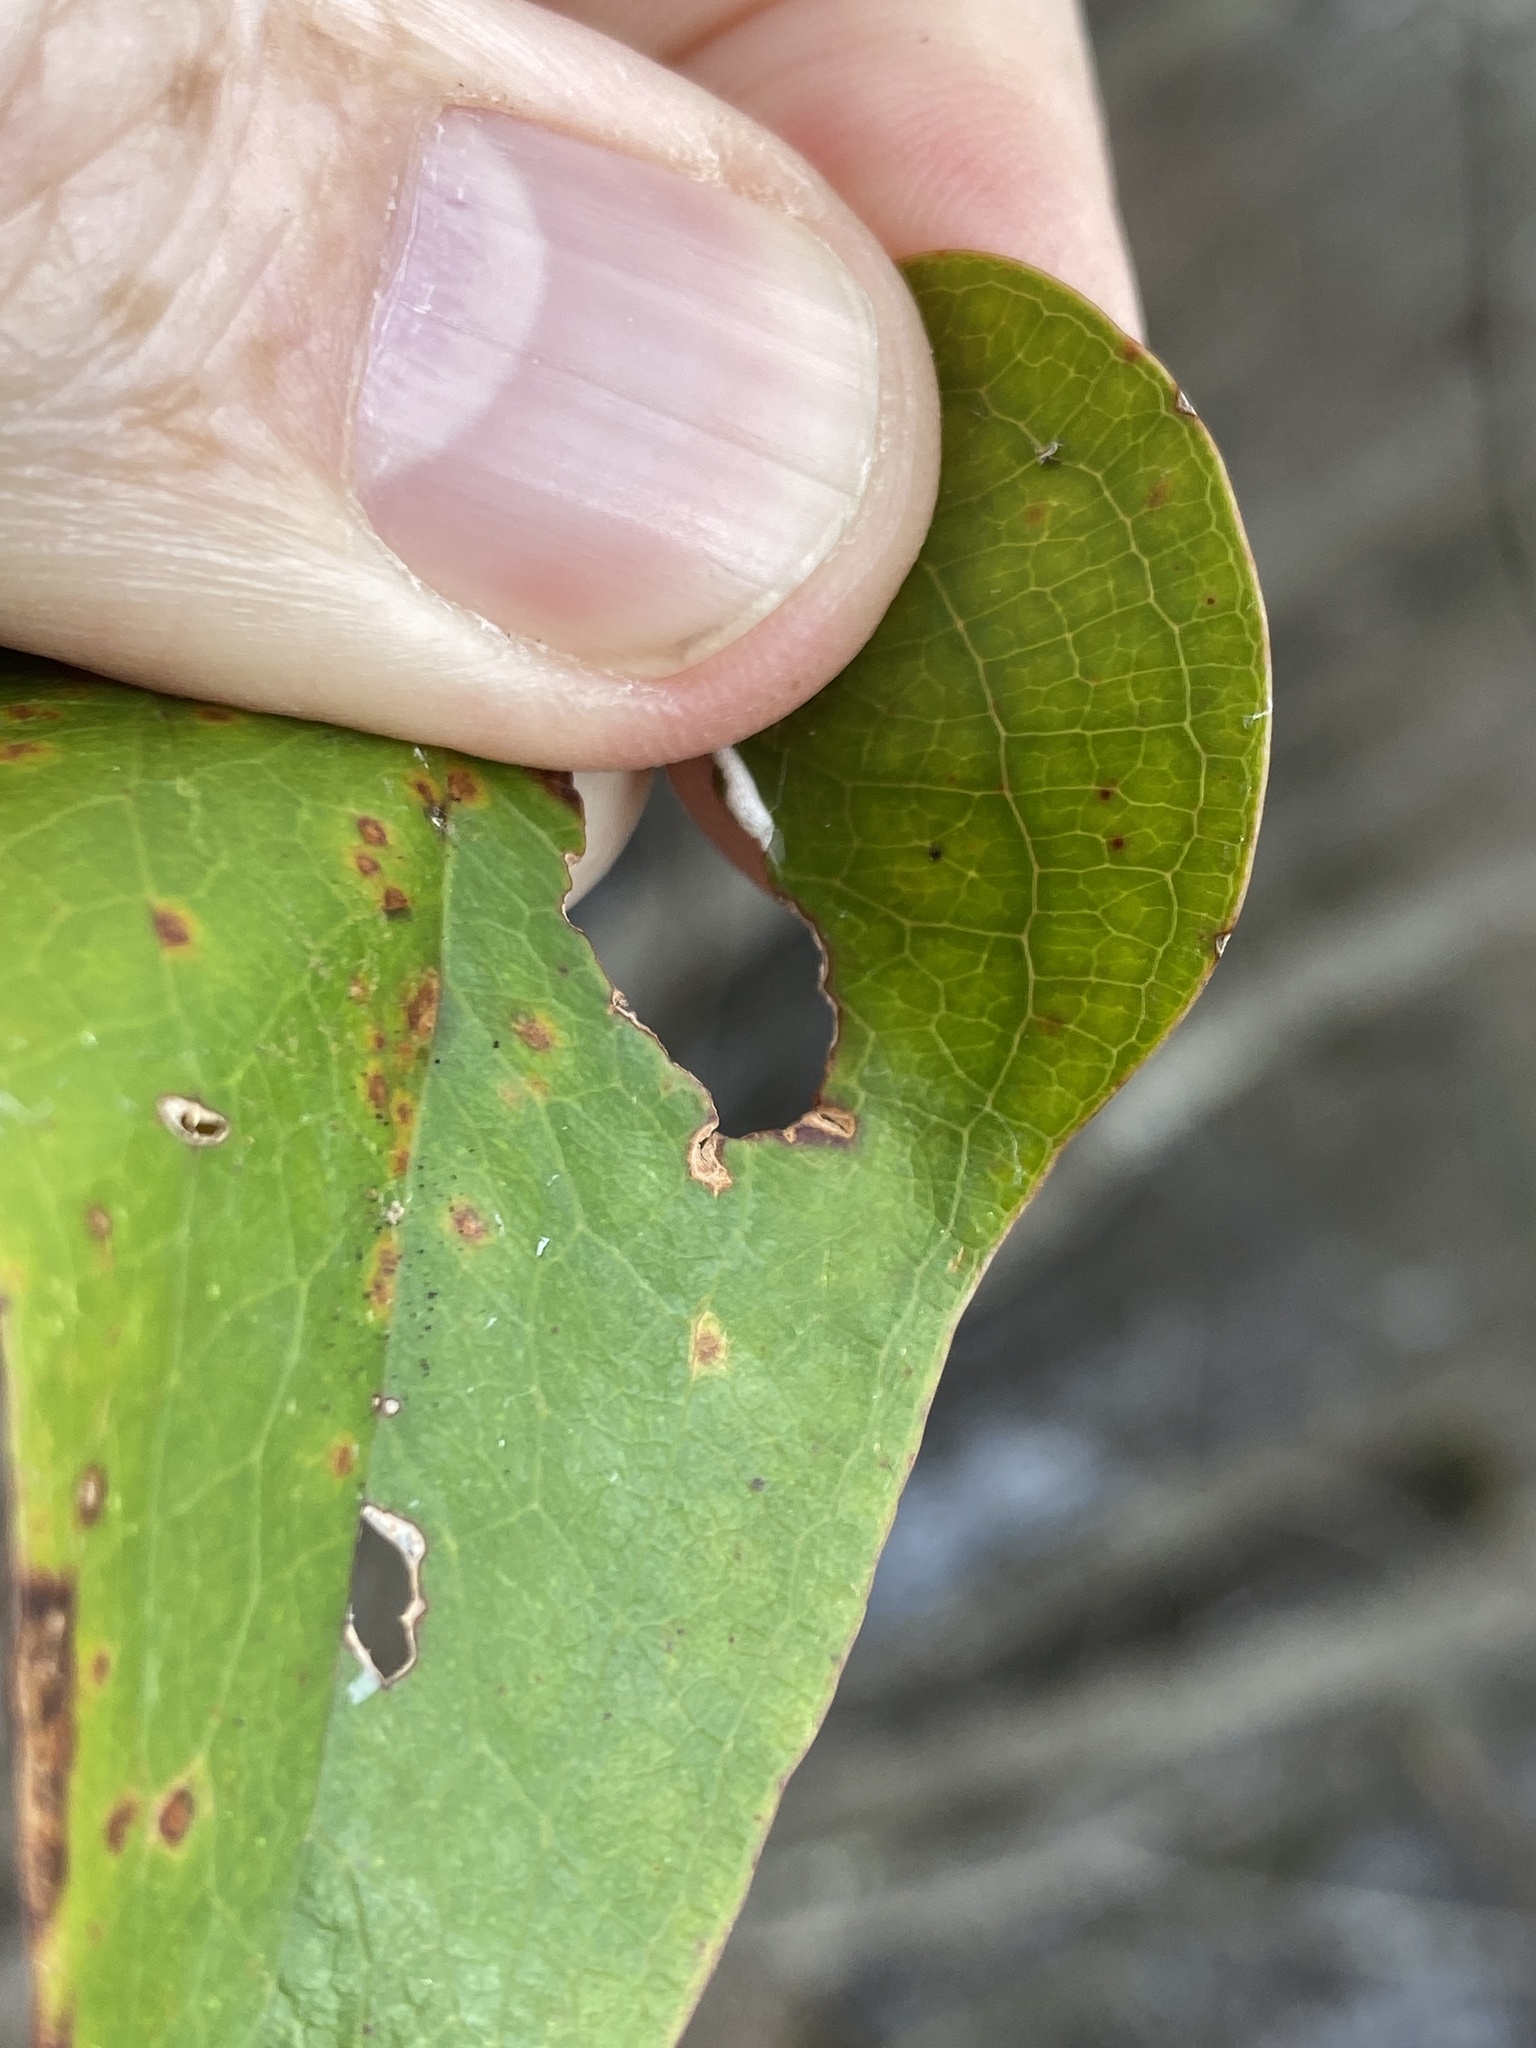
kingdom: Plantae
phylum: Tracheophyta
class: Liliopsida
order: Liliales
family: Smilacaceae
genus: Smilax
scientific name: Smilax bona-nox
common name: Catbrier
